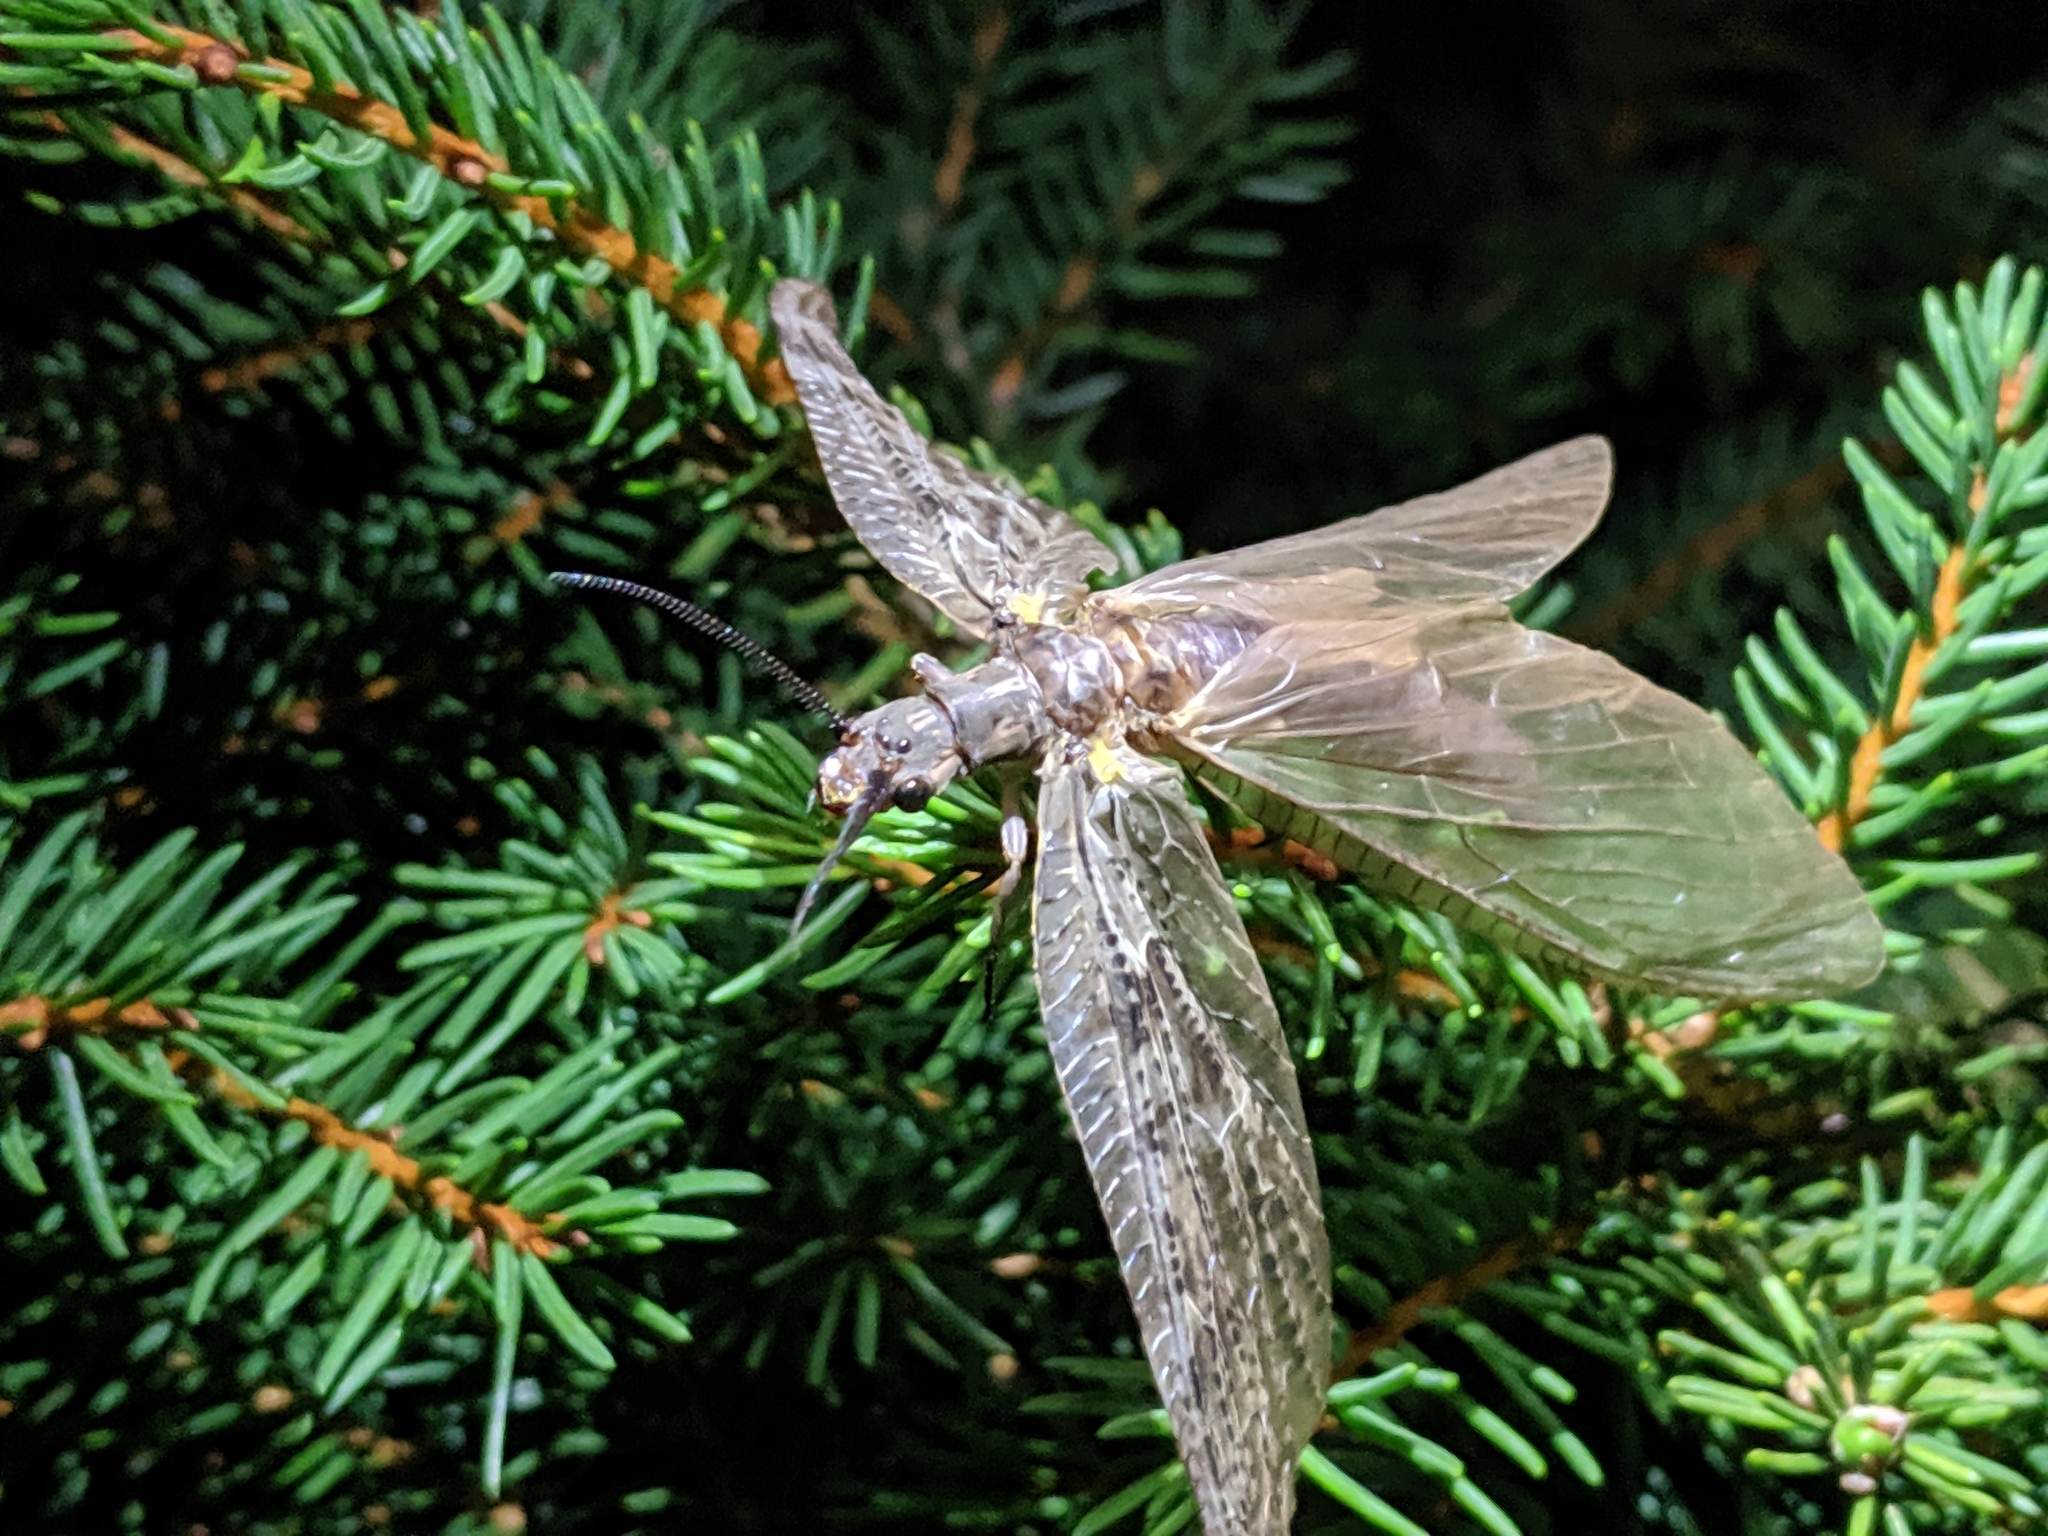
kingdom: Animalia
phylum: Arthropoda
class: Insecta
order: Megaloptera
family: Corydalidae
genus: Chauliodes
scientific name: Chauliodes pectinicornis
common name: Summer fishfly
